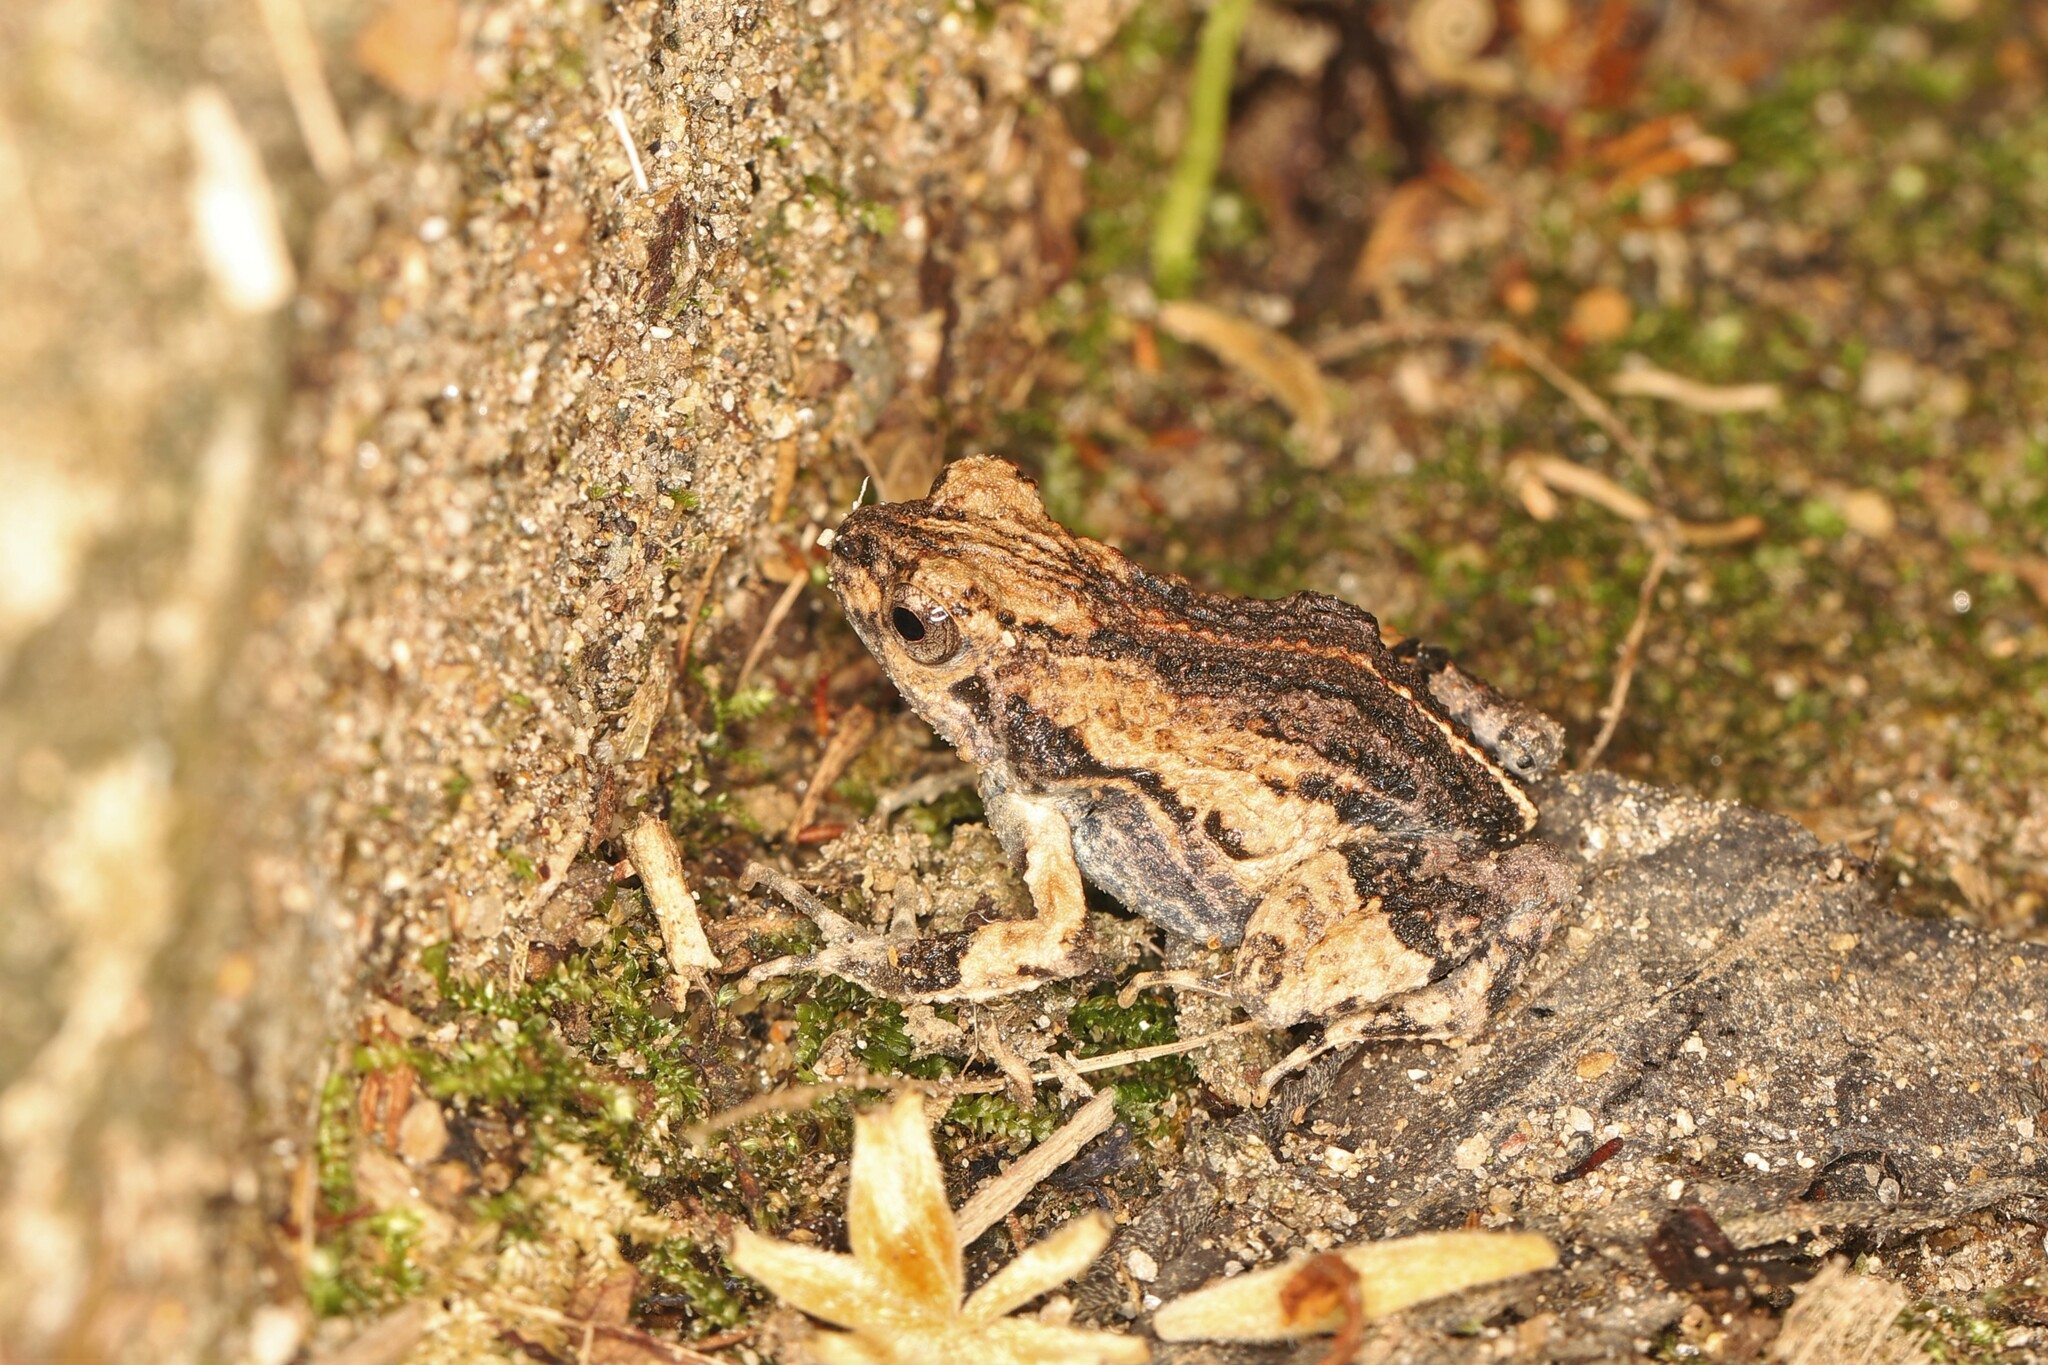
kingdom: Animalia
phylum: Chordata
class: Amphibia
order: Anura
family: Leptodactylidae
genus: Engystomops
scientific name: Engystomops pustulosus
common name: Tungara frog
